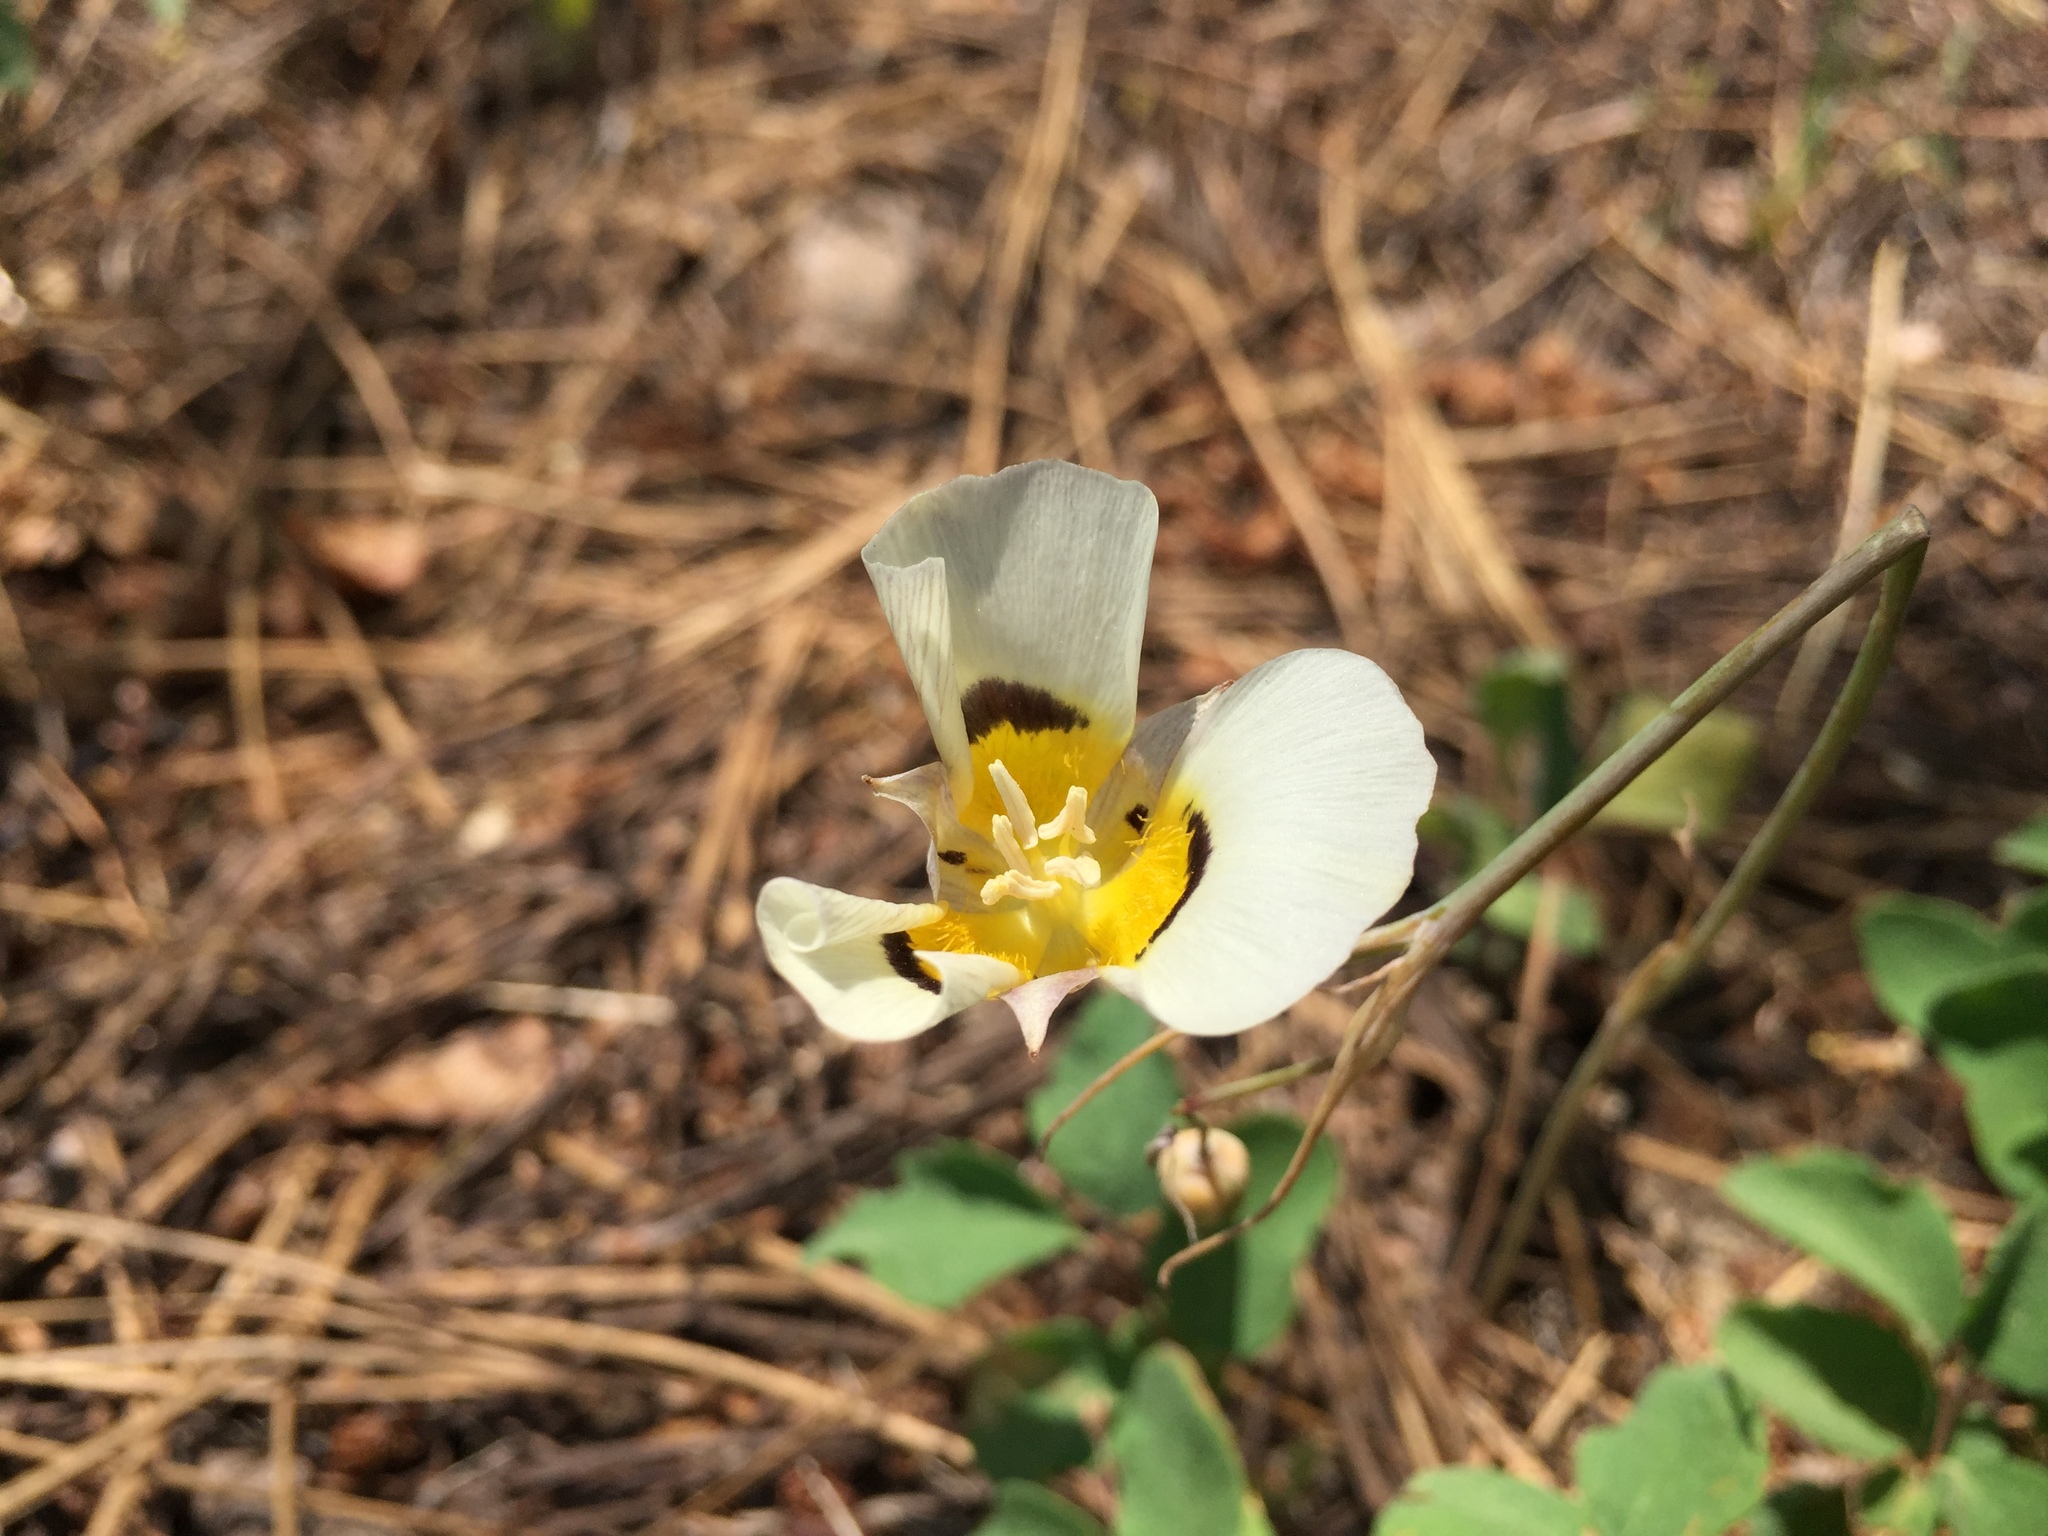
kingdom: Plantae
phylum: Tracheophyta
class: Liliopsida
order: Liliales
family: Liliaceae
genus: Calochortus
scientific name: Calochortus leichtlinii
